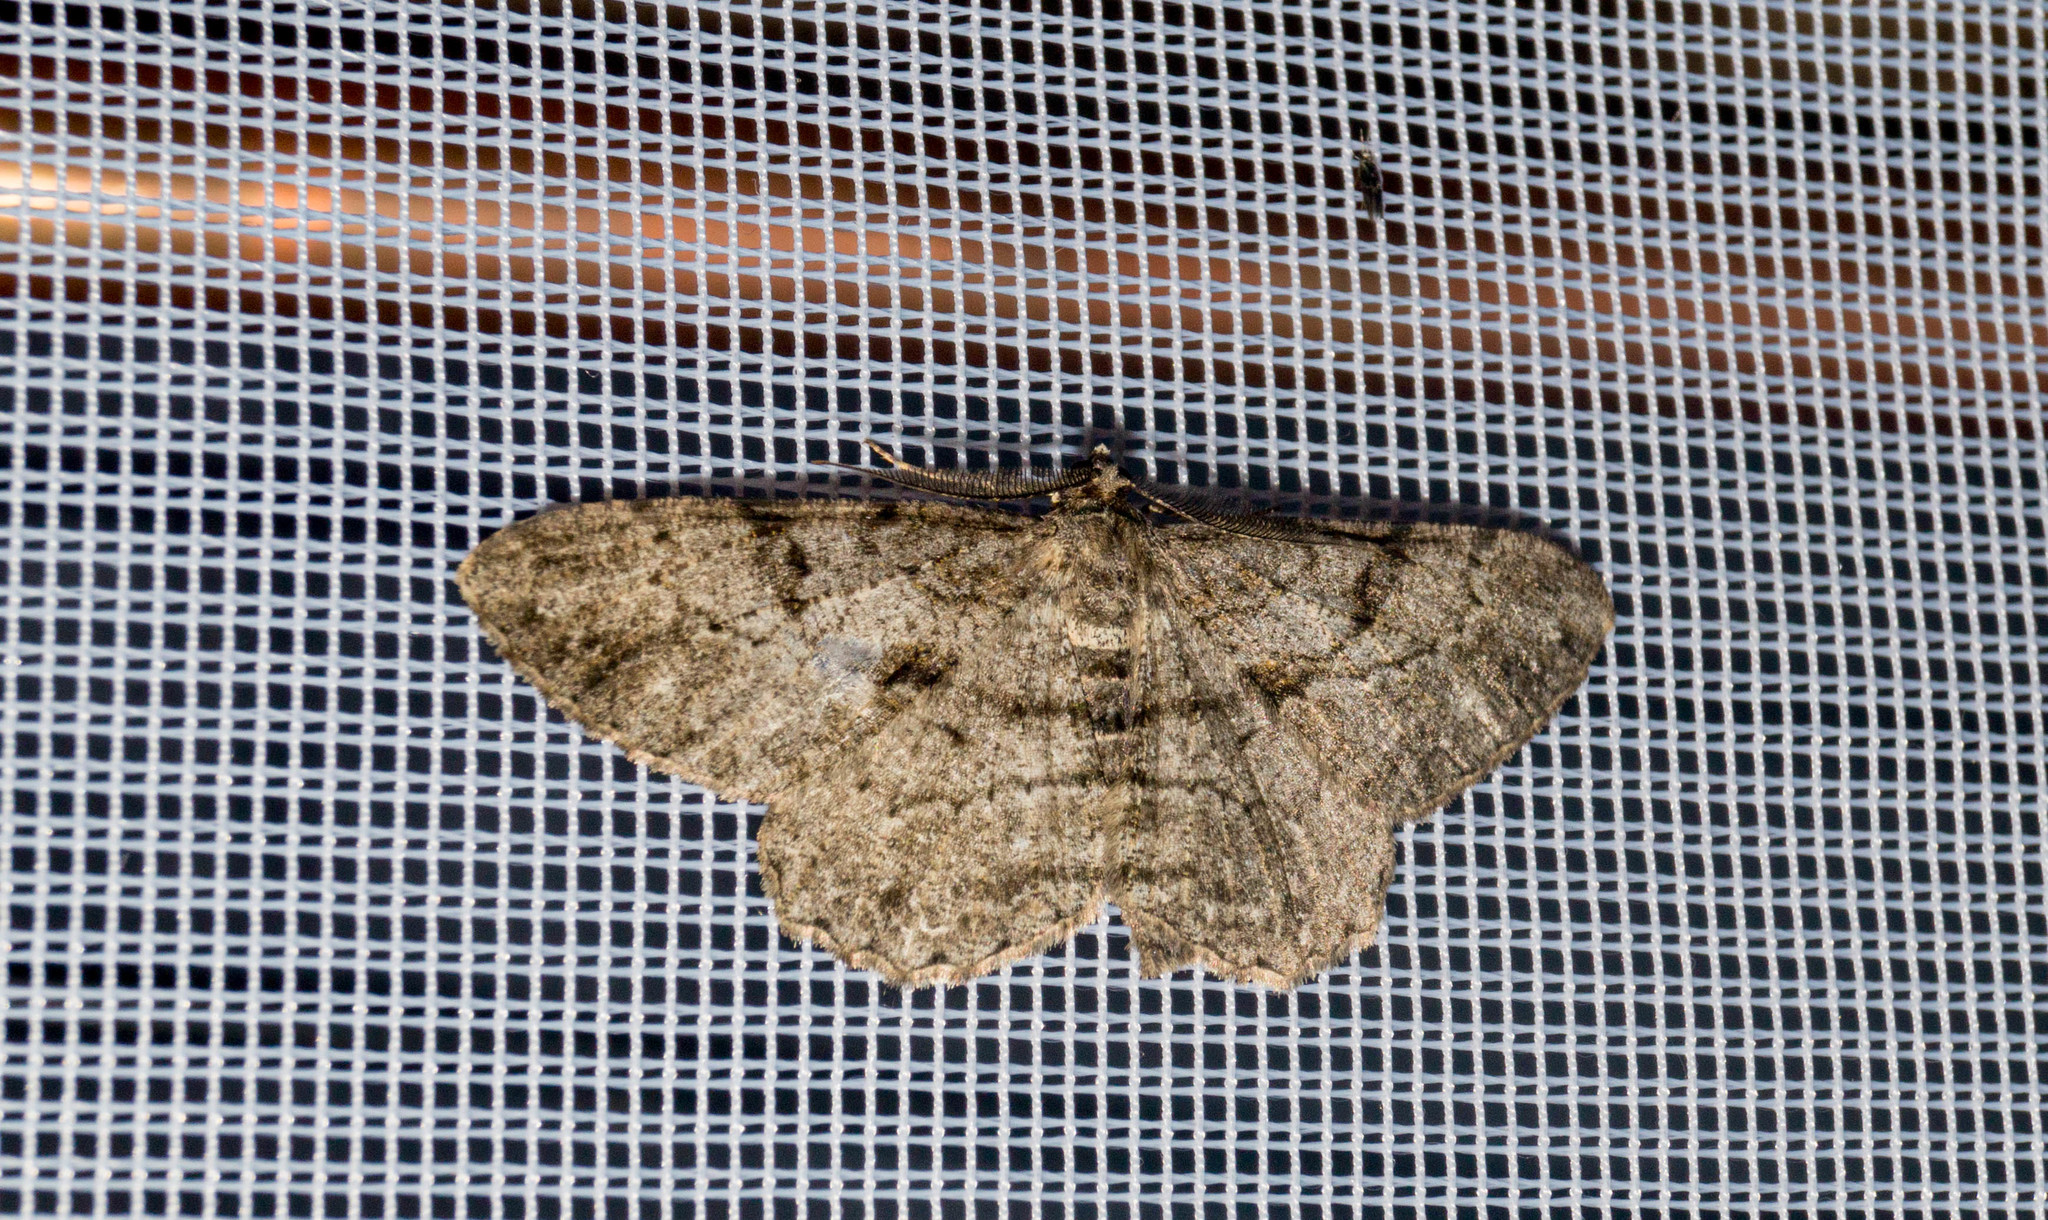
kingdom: Animalia
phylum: Arthropoda
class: Insecta
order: Lepidoptera
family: Geometridae
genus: Peribatodes
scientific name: Peribatodes rhomboidaria
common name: Willow beauty
